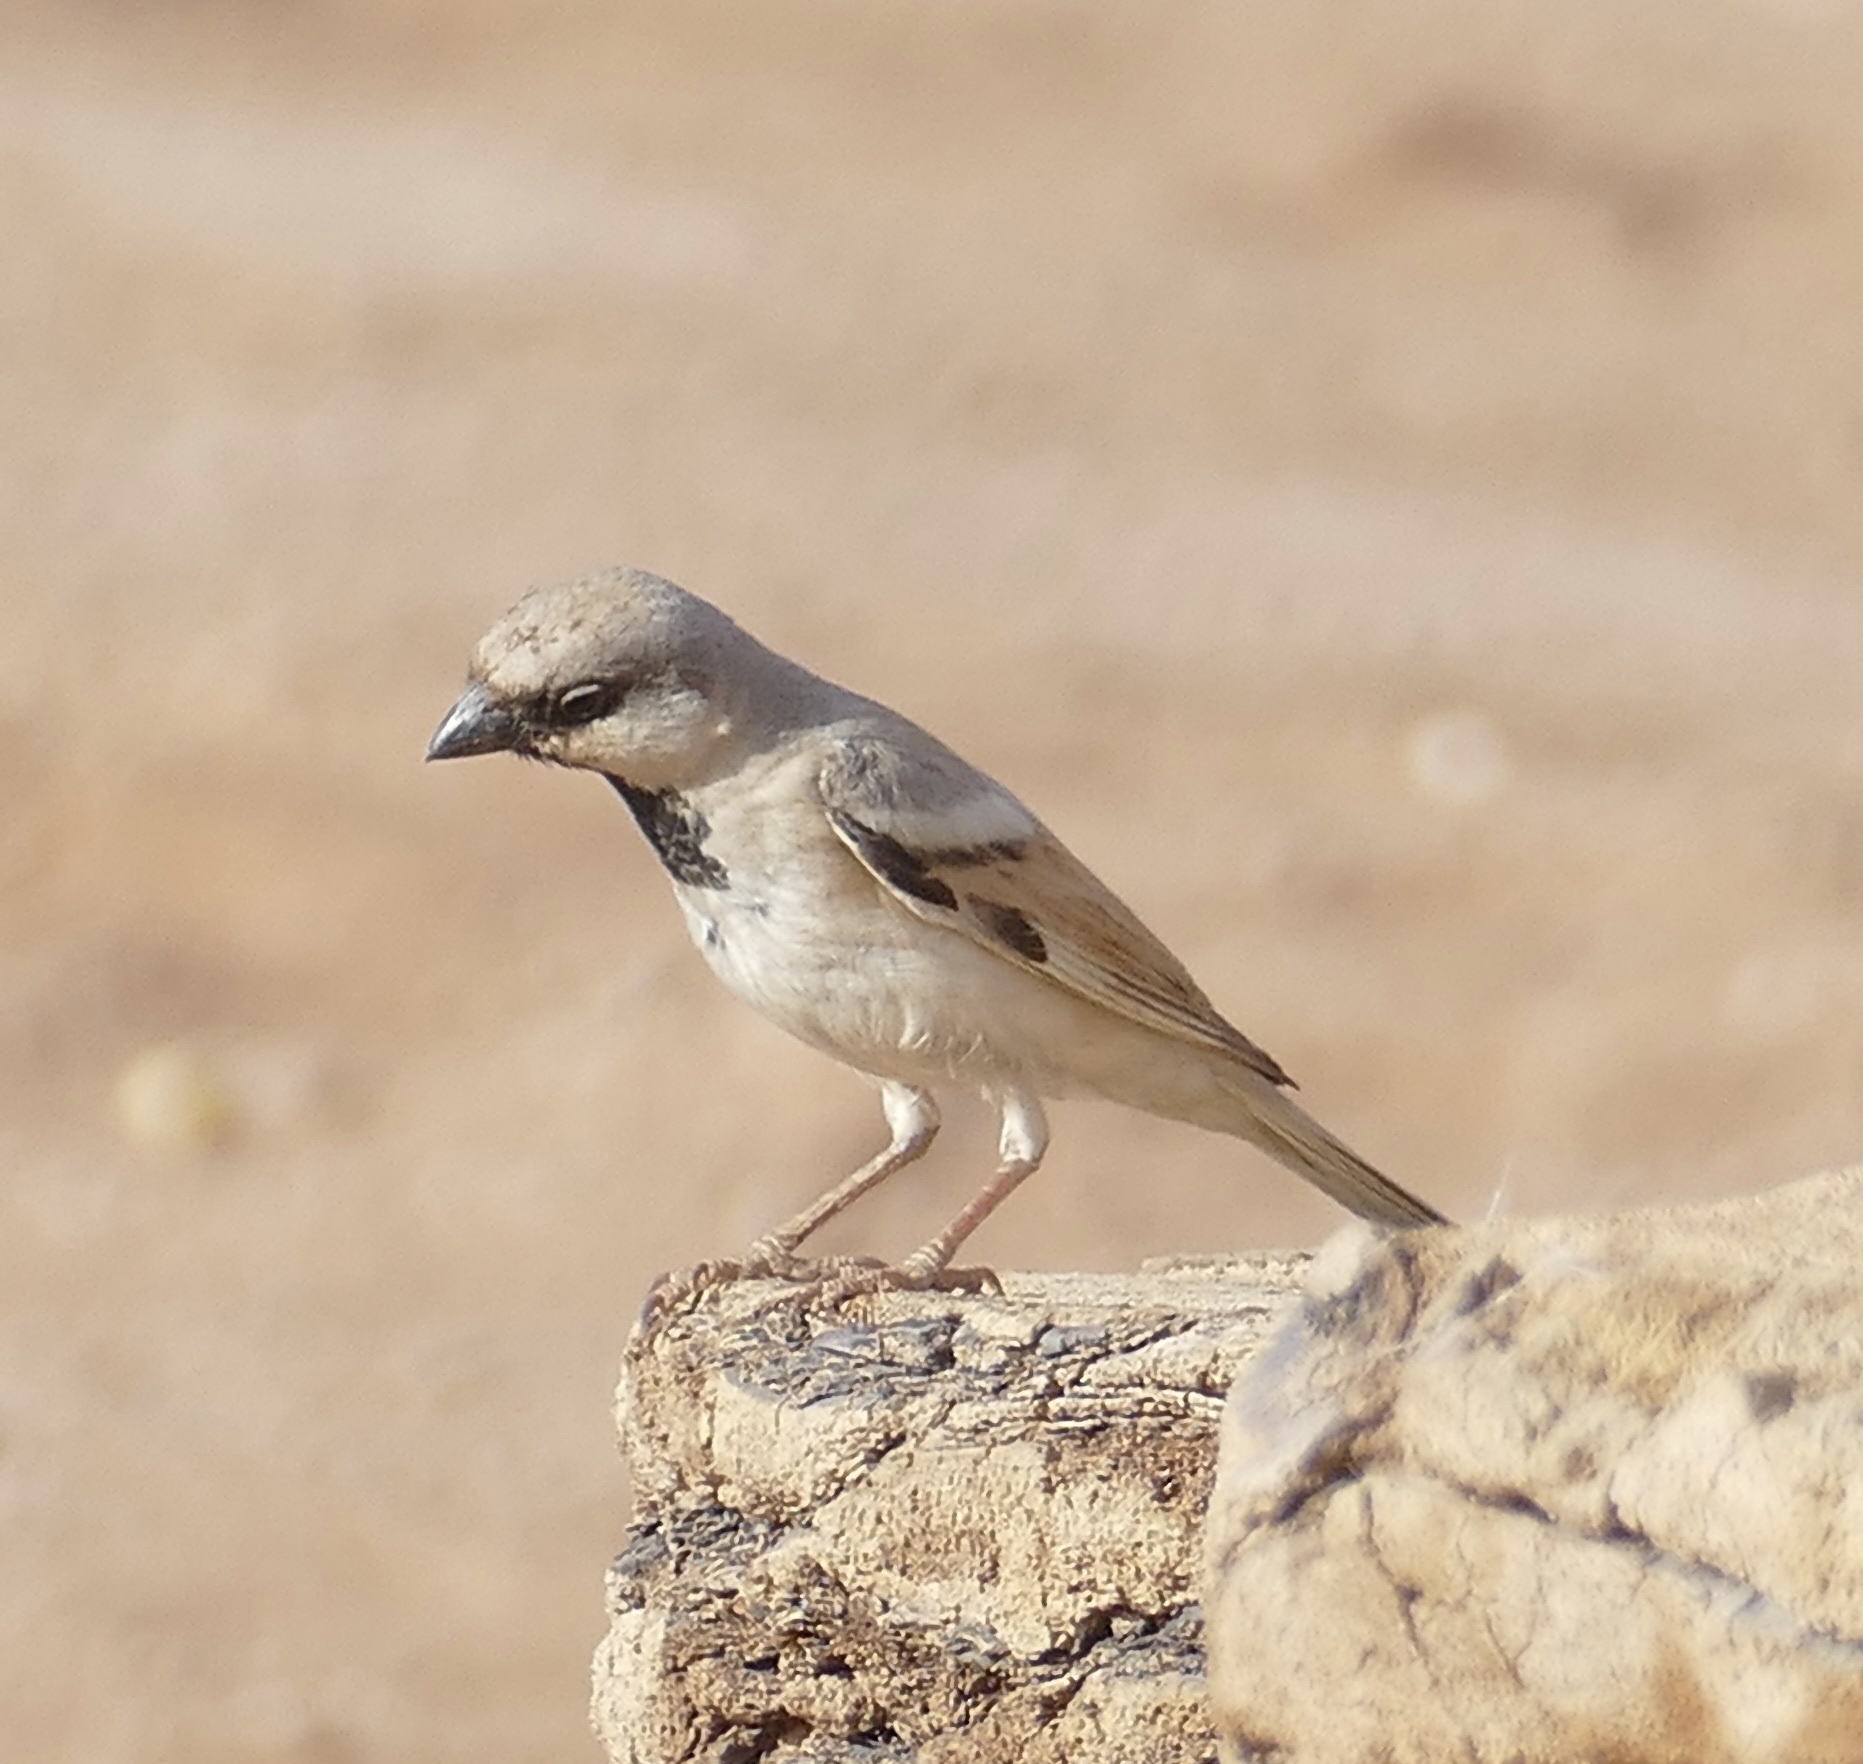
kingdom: Animalia
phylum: Chordata
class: Aves
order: Passeriformes
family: Passeridae
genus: Passer
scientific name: Passer simplex
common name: Desert sparrow
